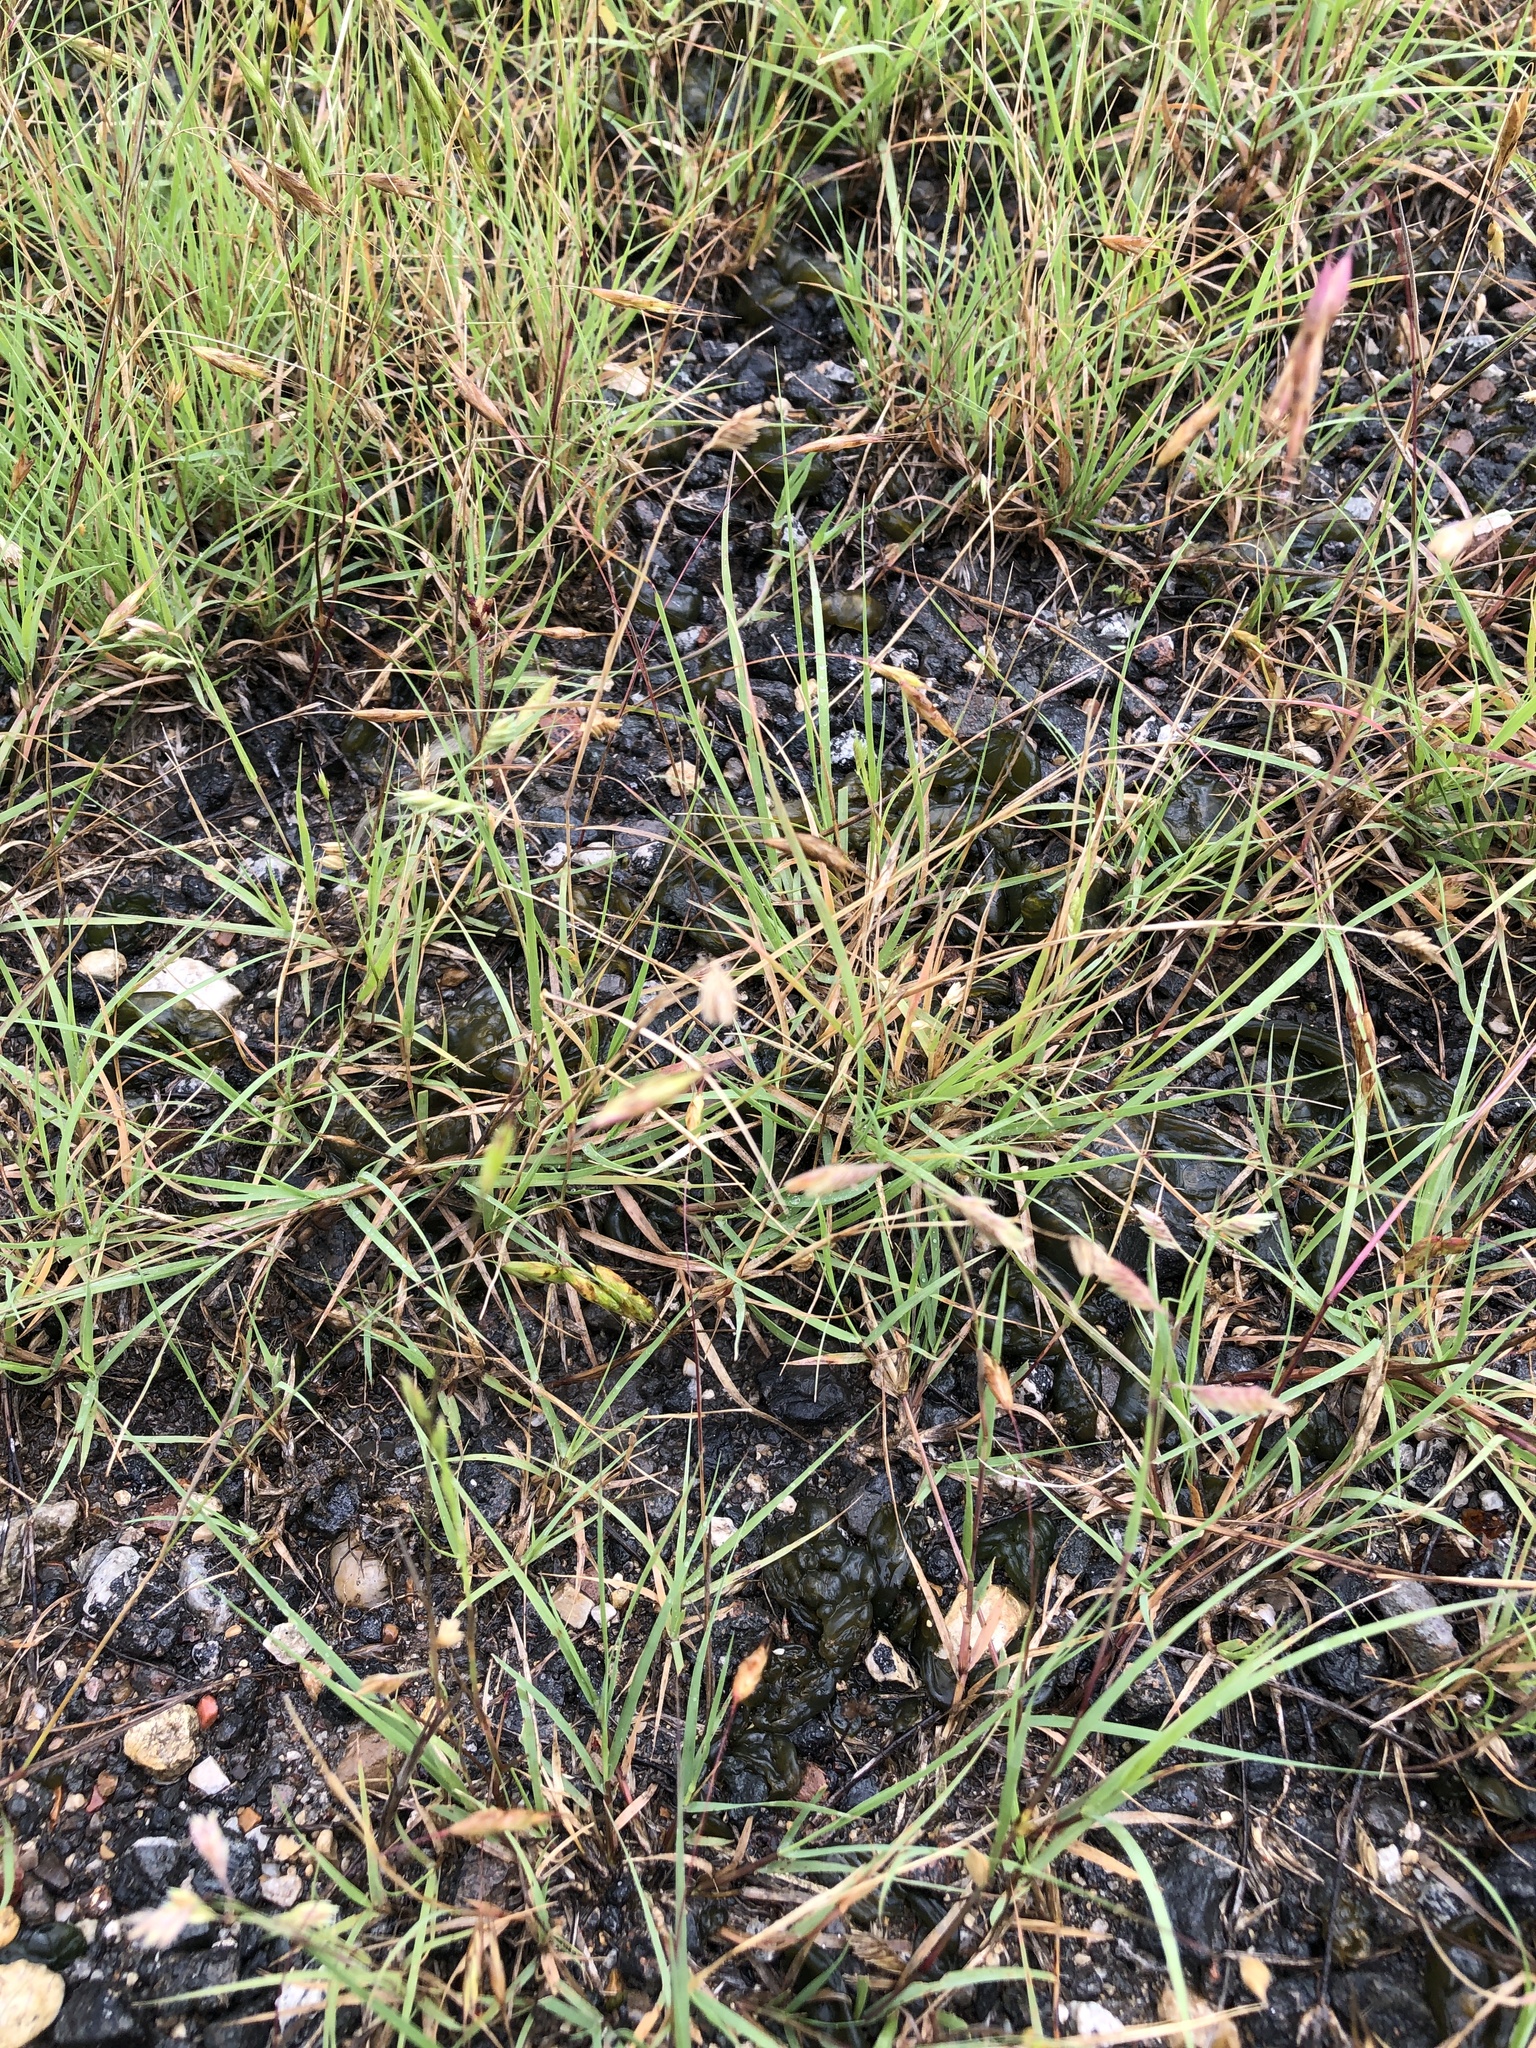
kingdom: Plantae
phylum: Tracheophyta
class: Liliopsida
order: Poales
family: Poaceae
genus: Bouteloua
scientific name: Bouteloua dactyloides
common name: Buffalo grass
